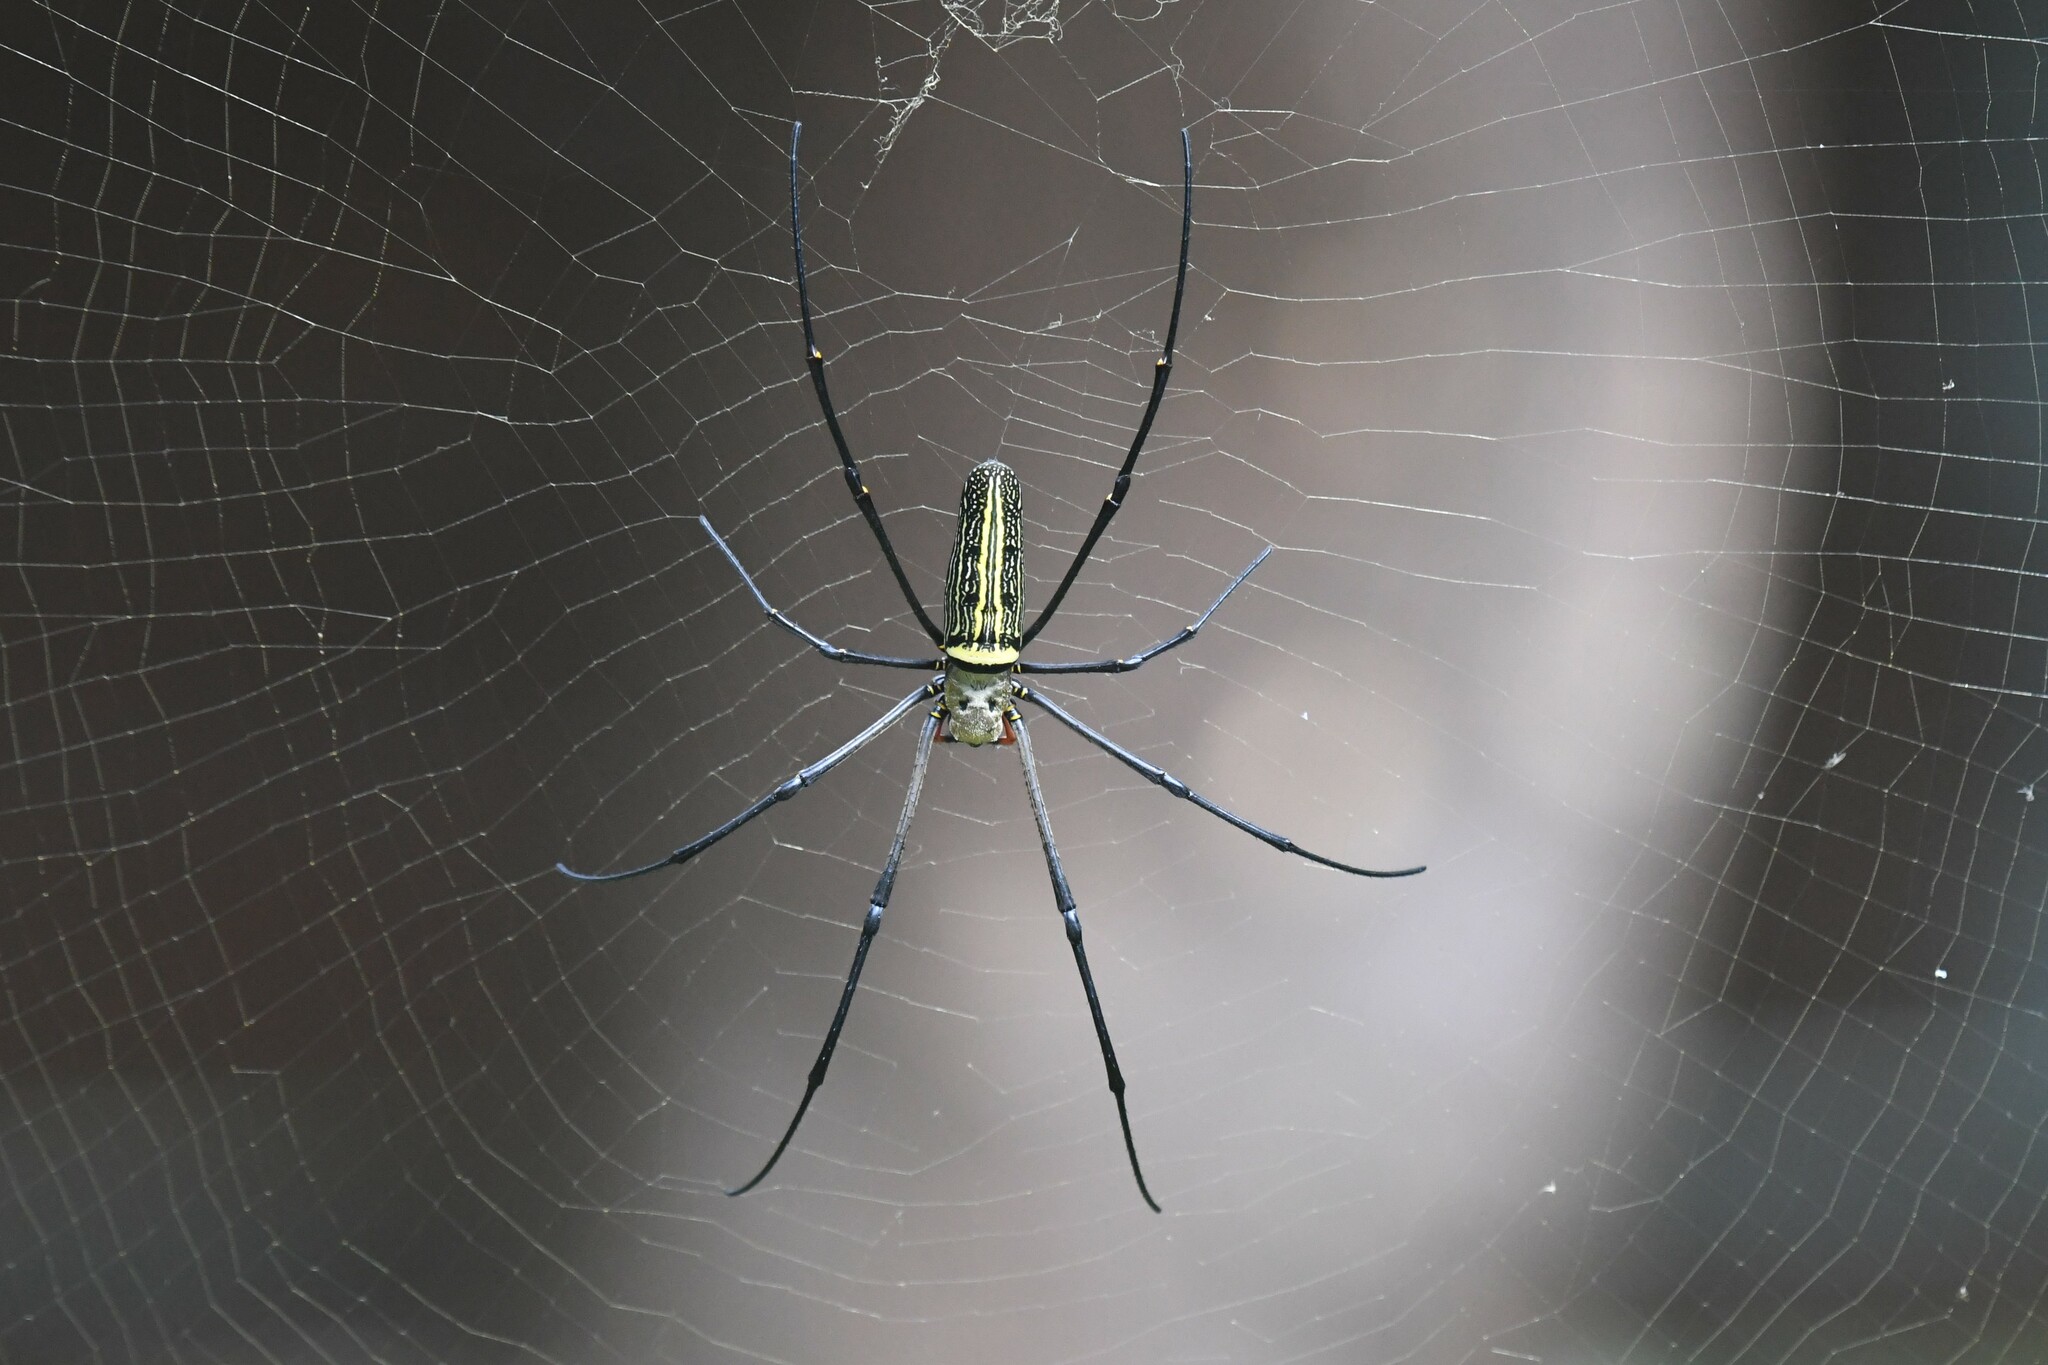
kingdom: Animalia
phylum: Arthropoda
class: Arachnida
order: Araneae
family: Araneidae
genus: Nephila
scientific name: Nephila pilipes
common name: Giant golden orb weaver
